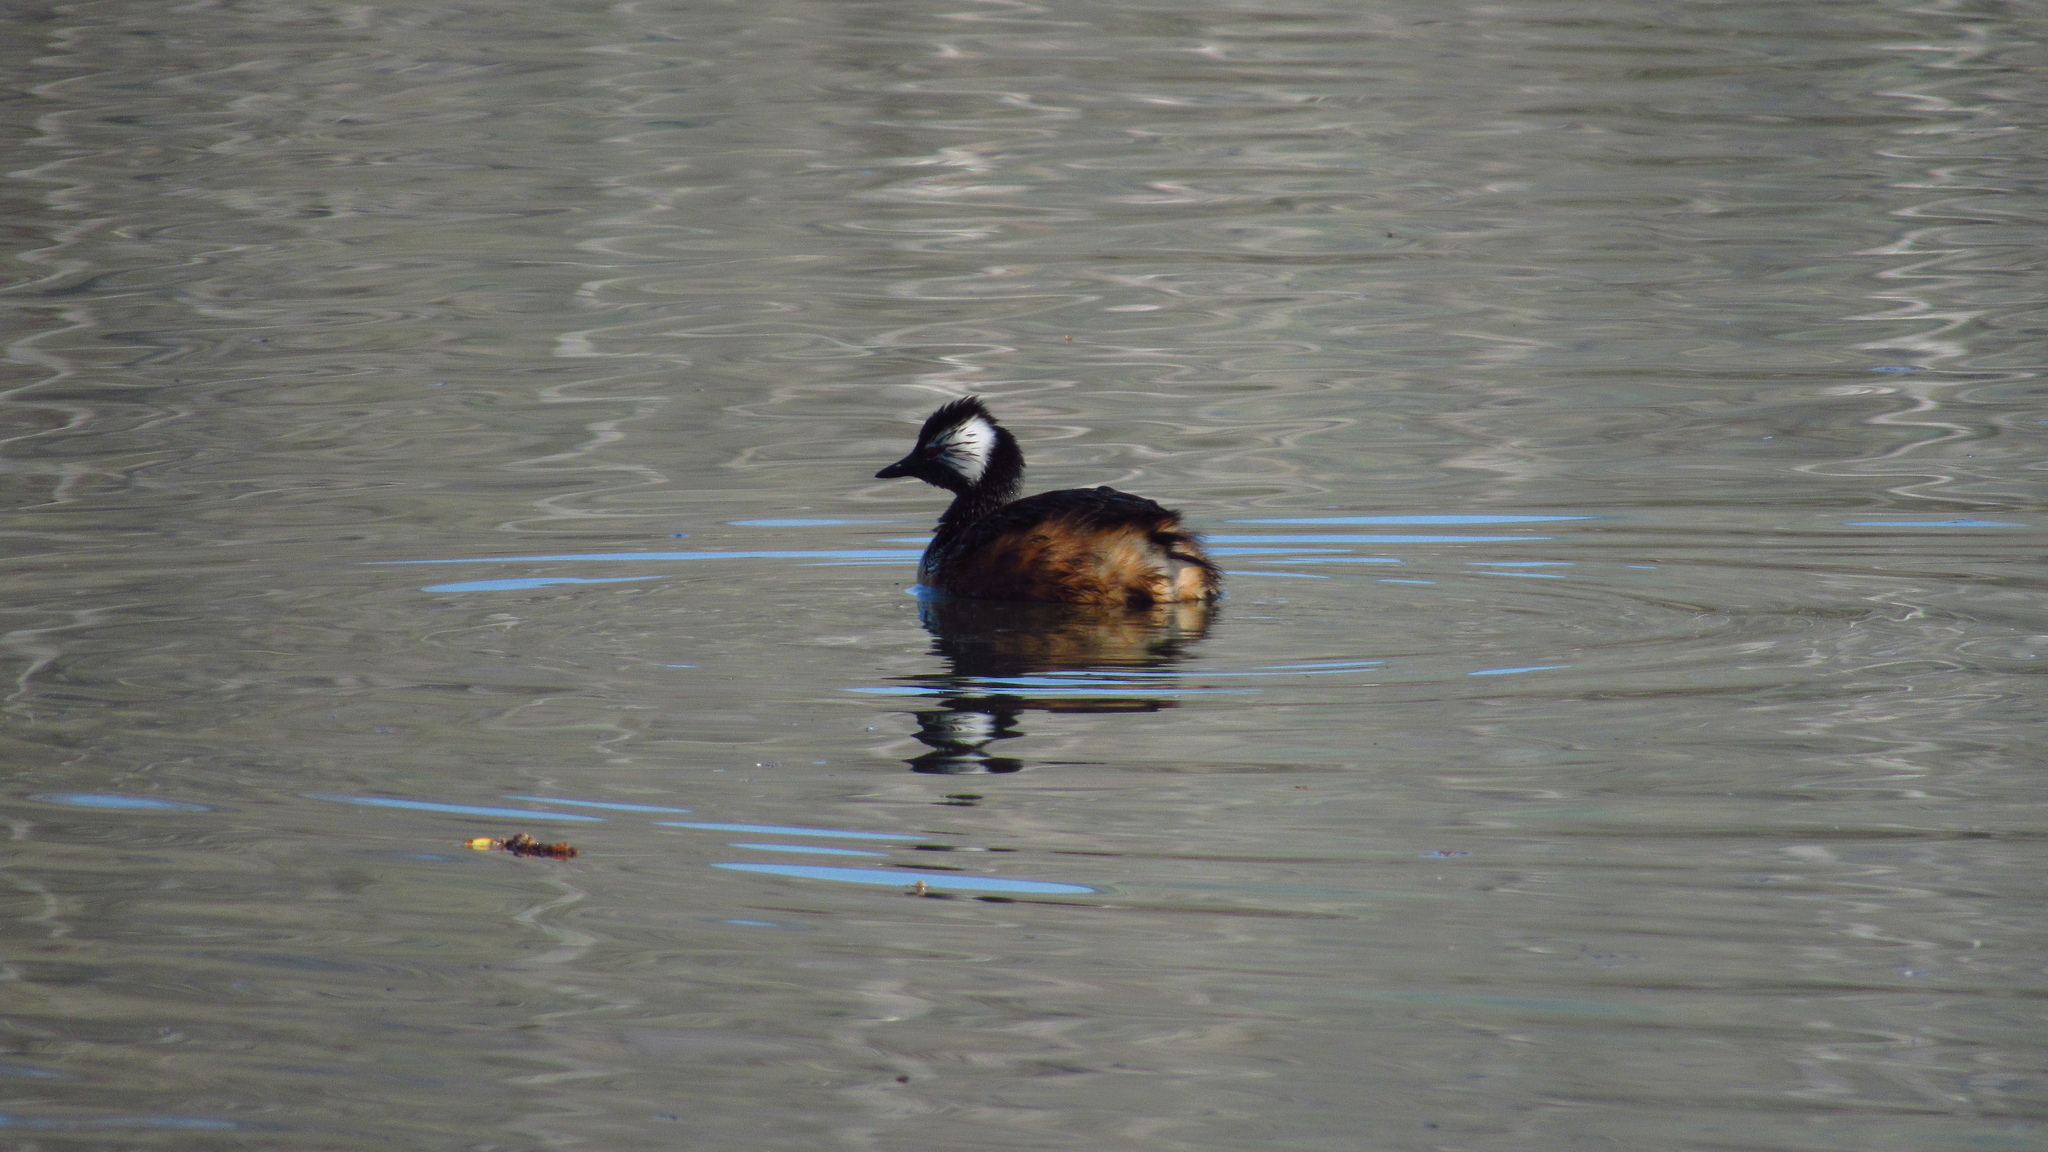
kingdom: Animalia
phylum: Chordata
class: Aves
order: Podicipediformes
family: Podicipedidae
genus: Rollandia
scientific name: Rollandia rolland
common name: White-tufted grebe
